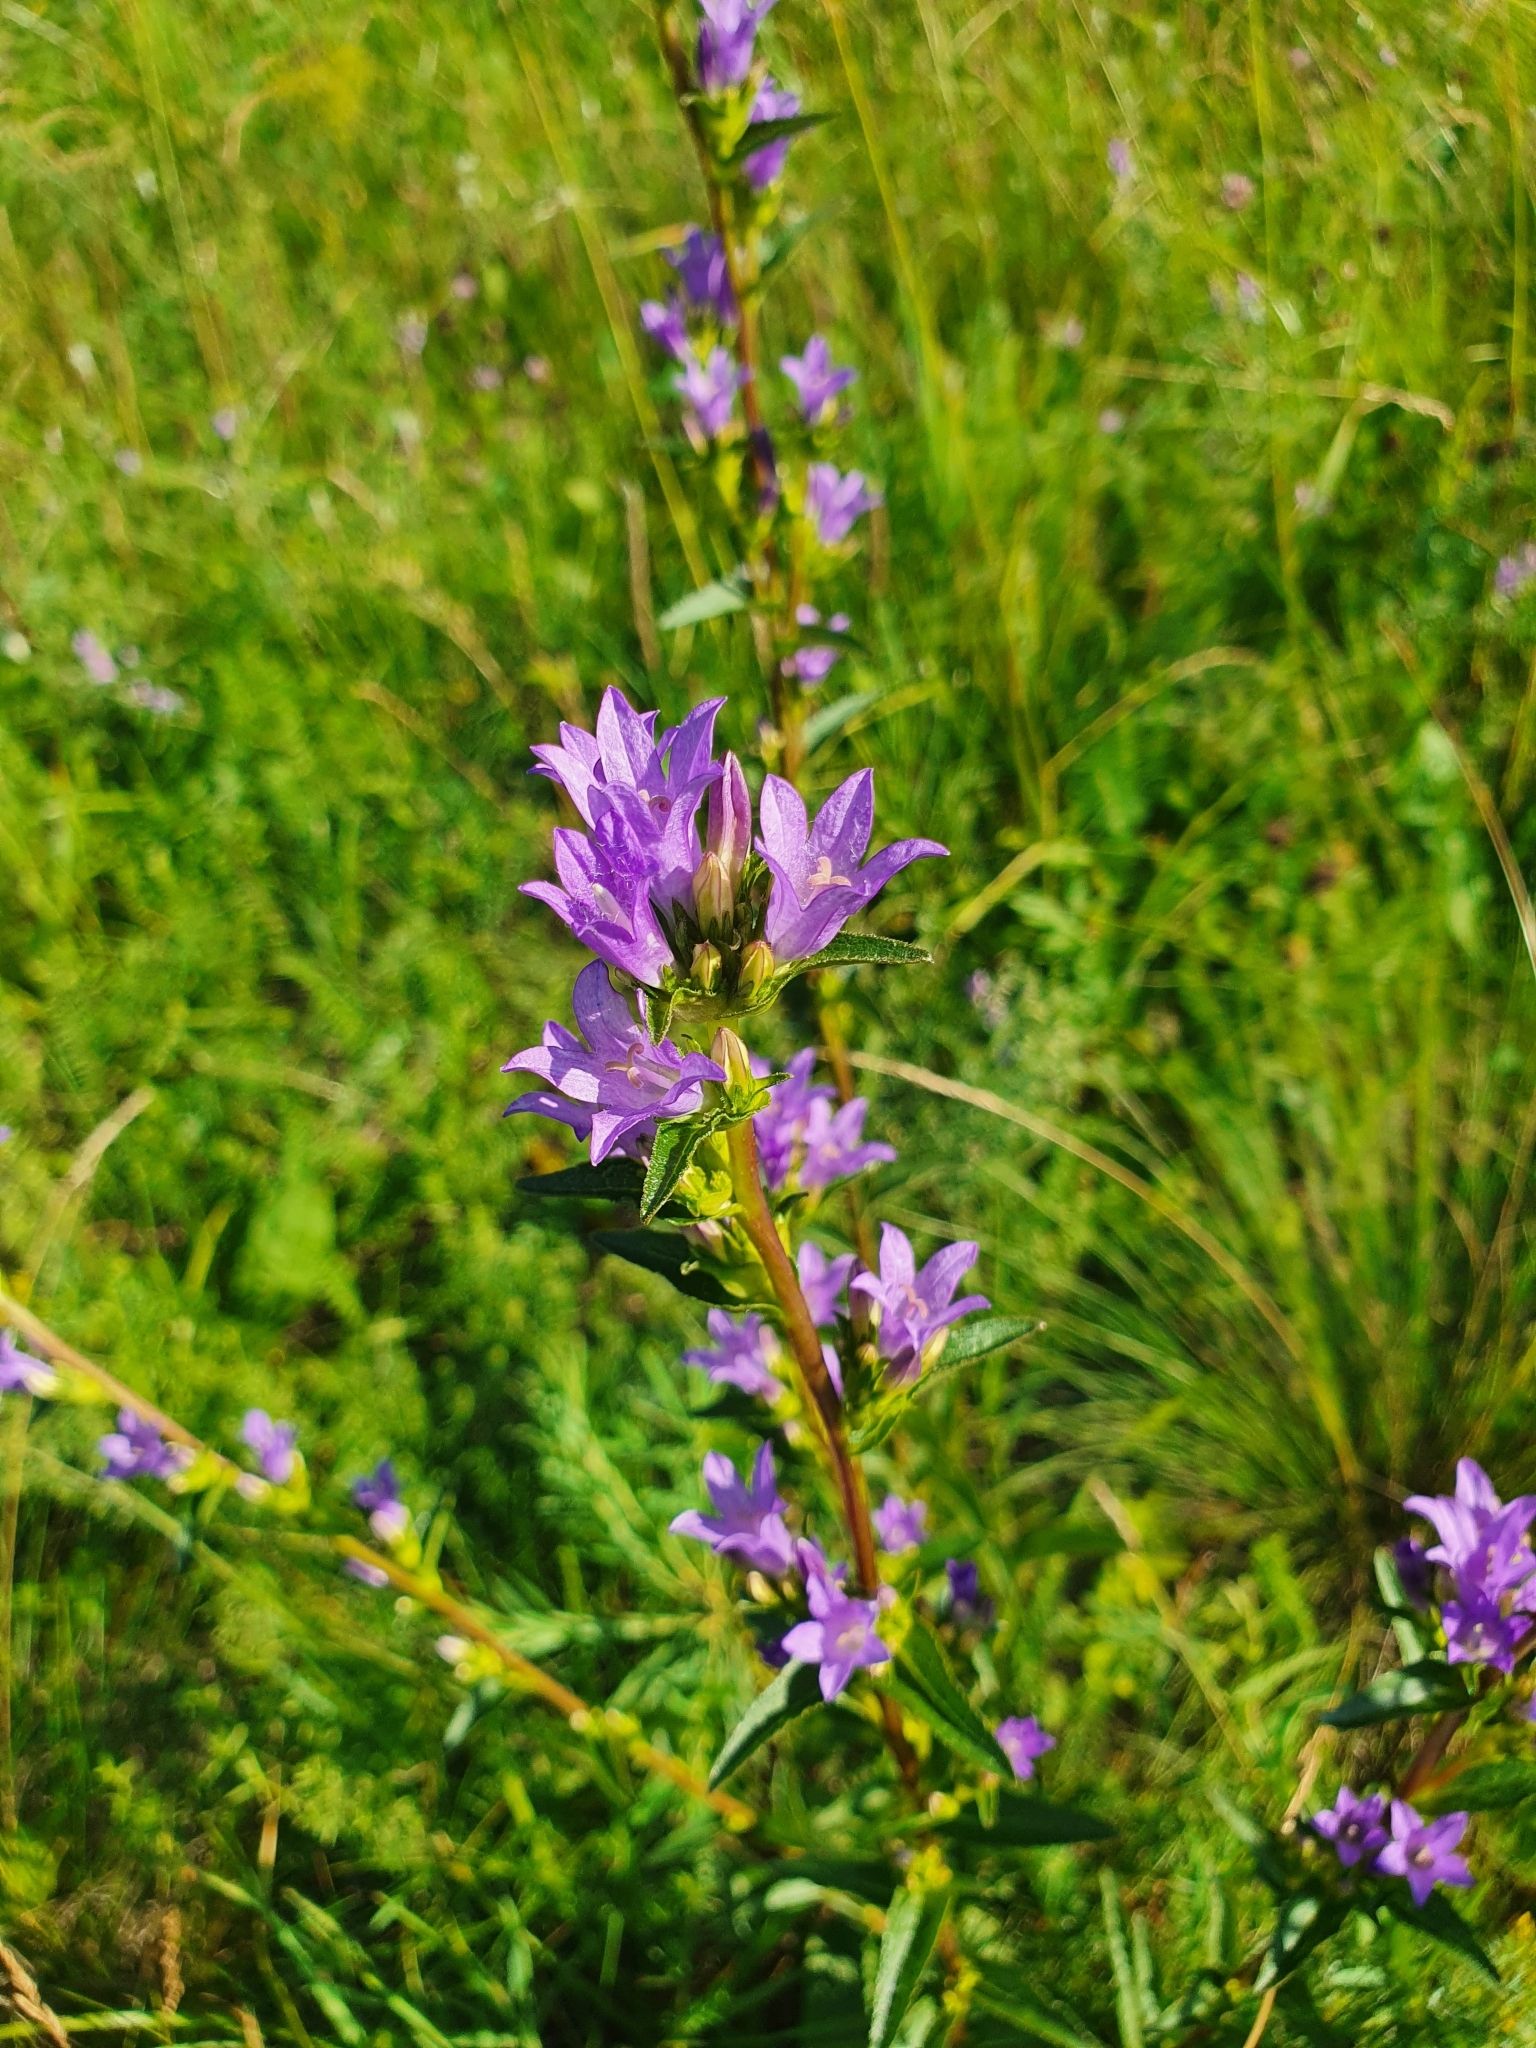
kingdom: Plantae
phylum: Tracheophyta
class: Magnoliopsida
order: Asterales
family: Campanulaceae
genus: Campanula
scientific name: Campanula glomerata
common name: Clustered bellflower
